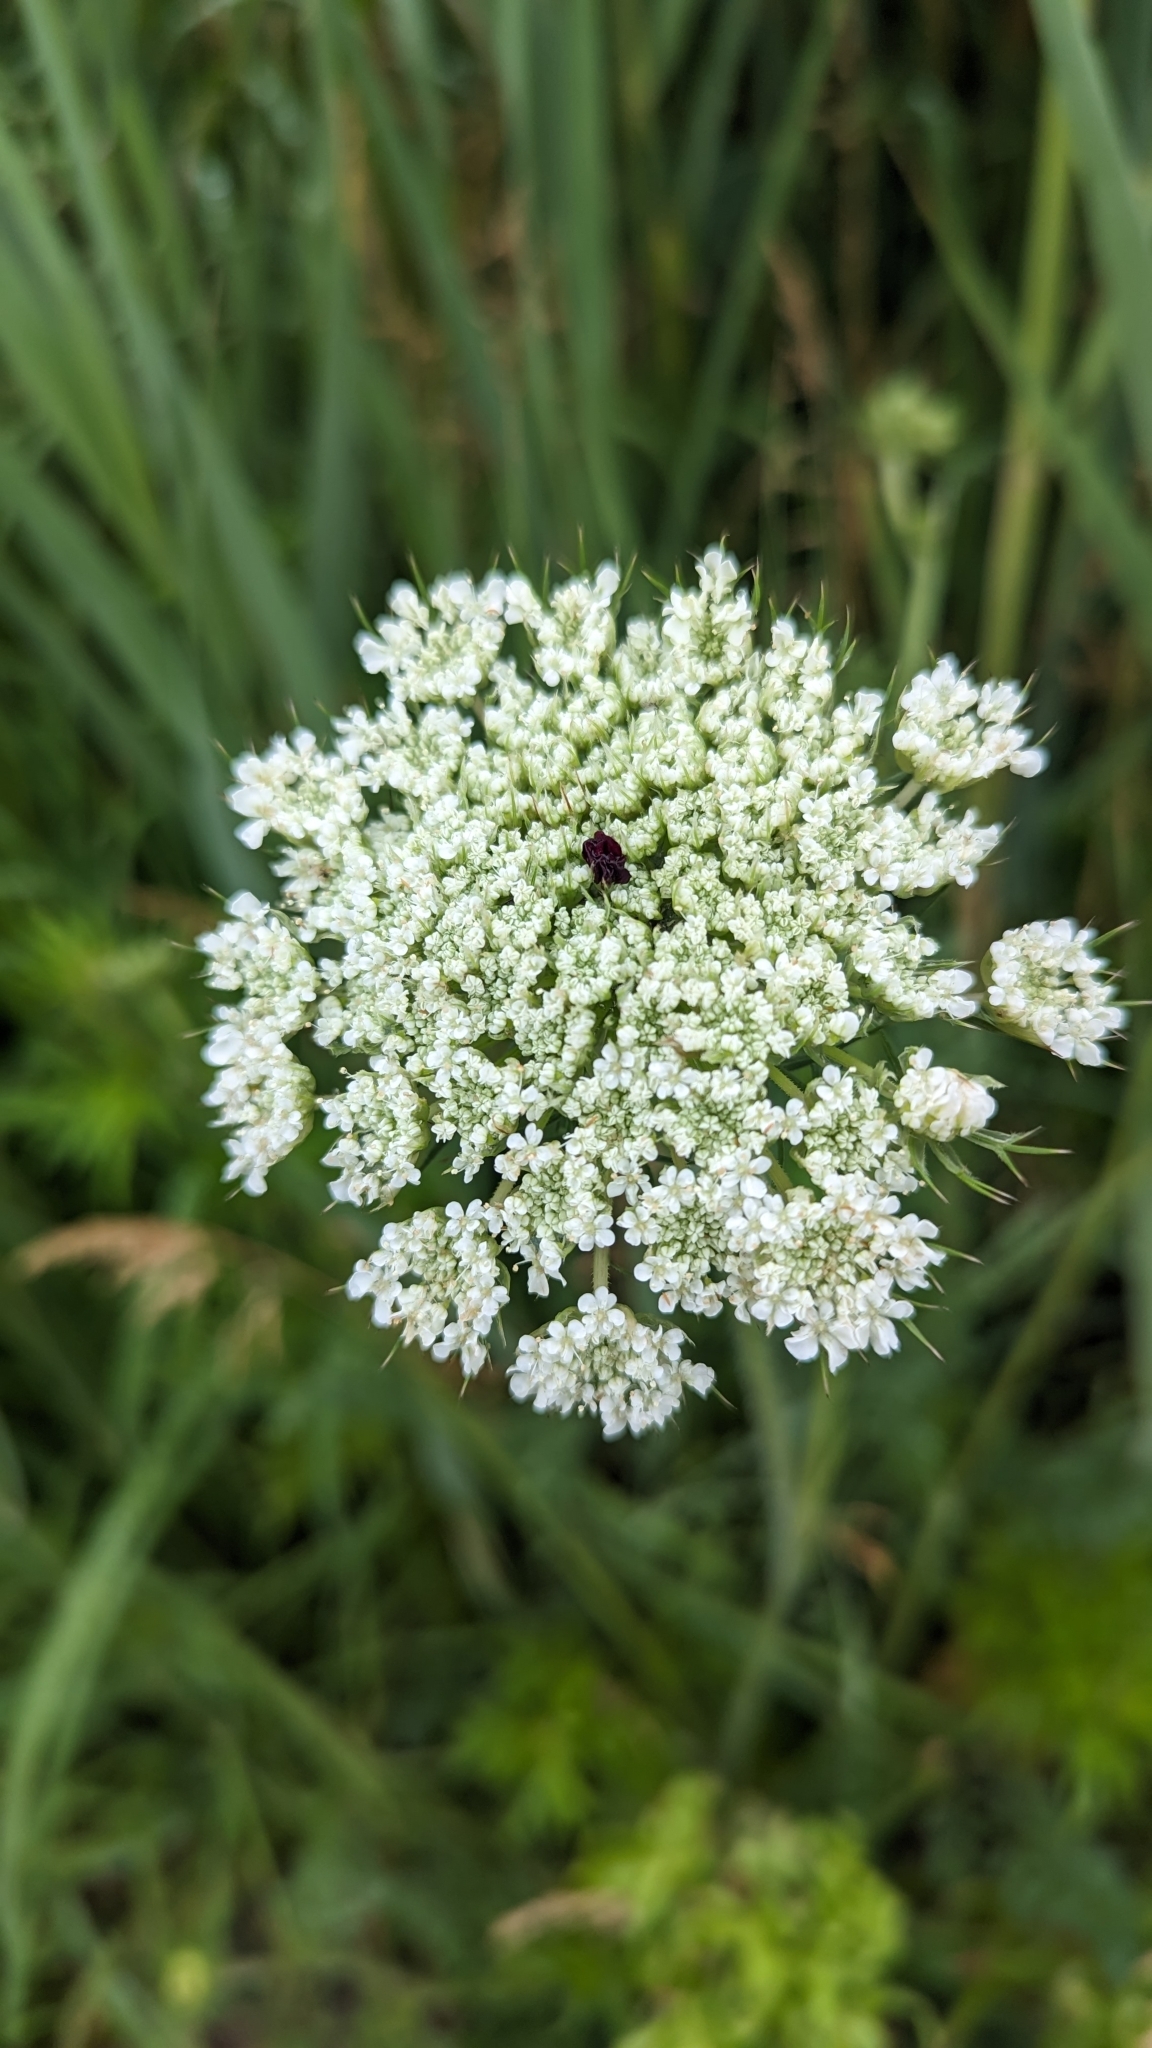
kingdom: Plantae
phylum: Tracheophyta
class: Magnoliopsida
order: Apiales
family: Apiaceae
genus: Daucus
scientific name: Daucus carota
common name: Wild carrot
